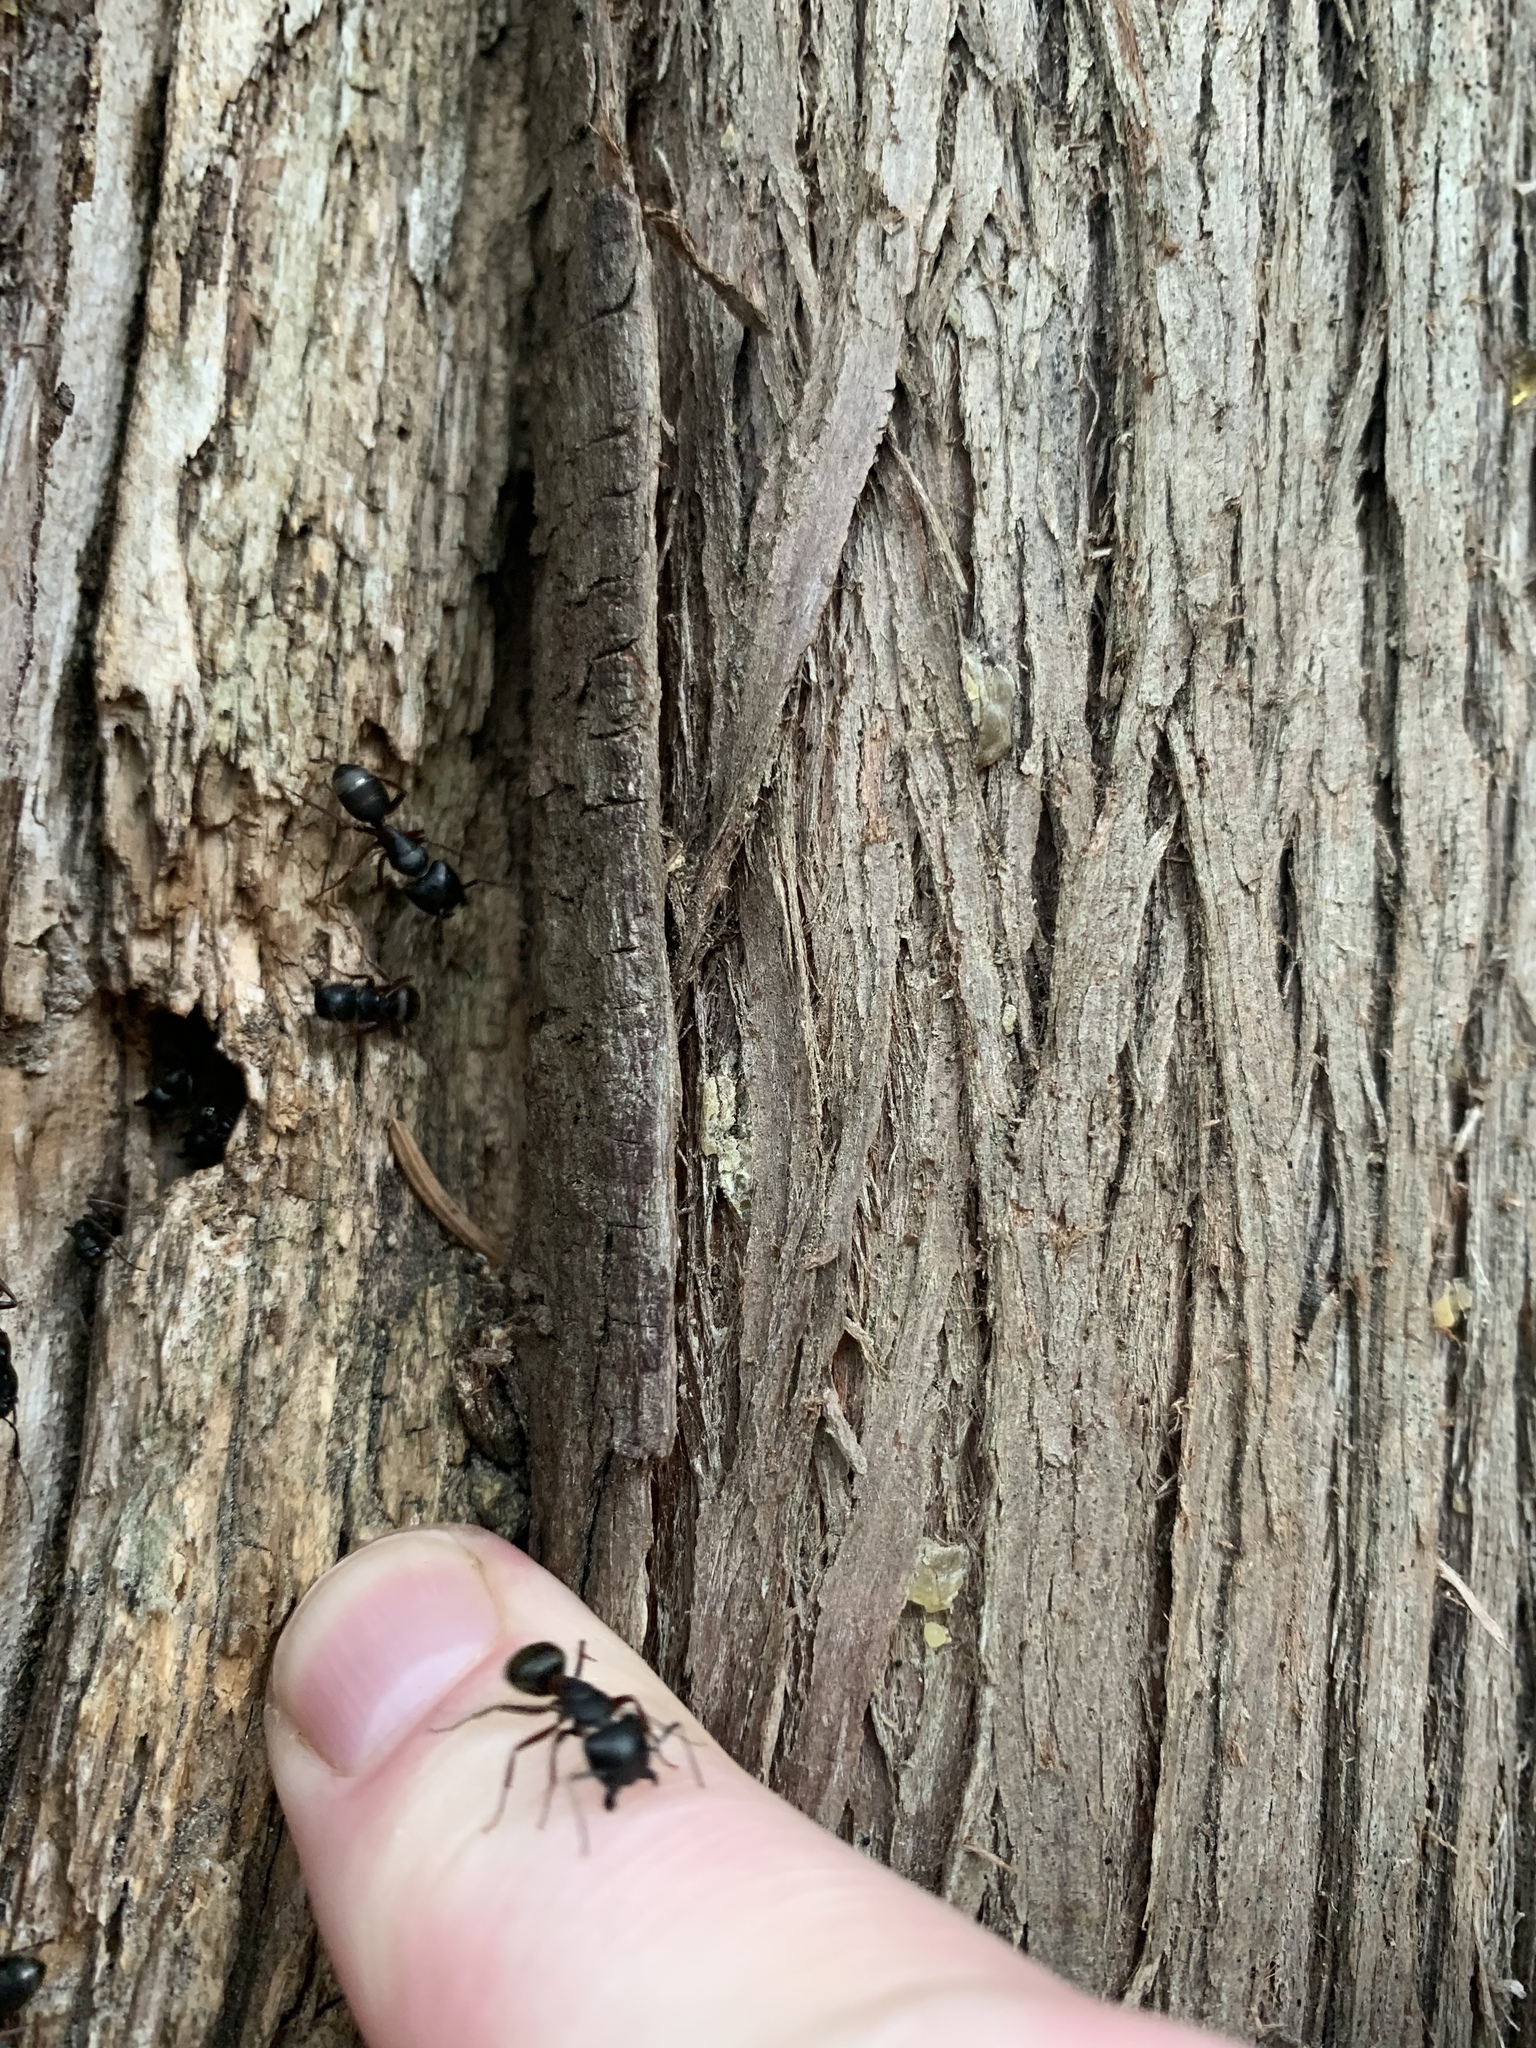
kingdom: Animalia
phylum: Arthropoda
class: Insecta
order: Hymenoptera
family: Formicidae
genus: Camponotus
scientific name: Camponotus herculeanus
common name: Hercules ant
